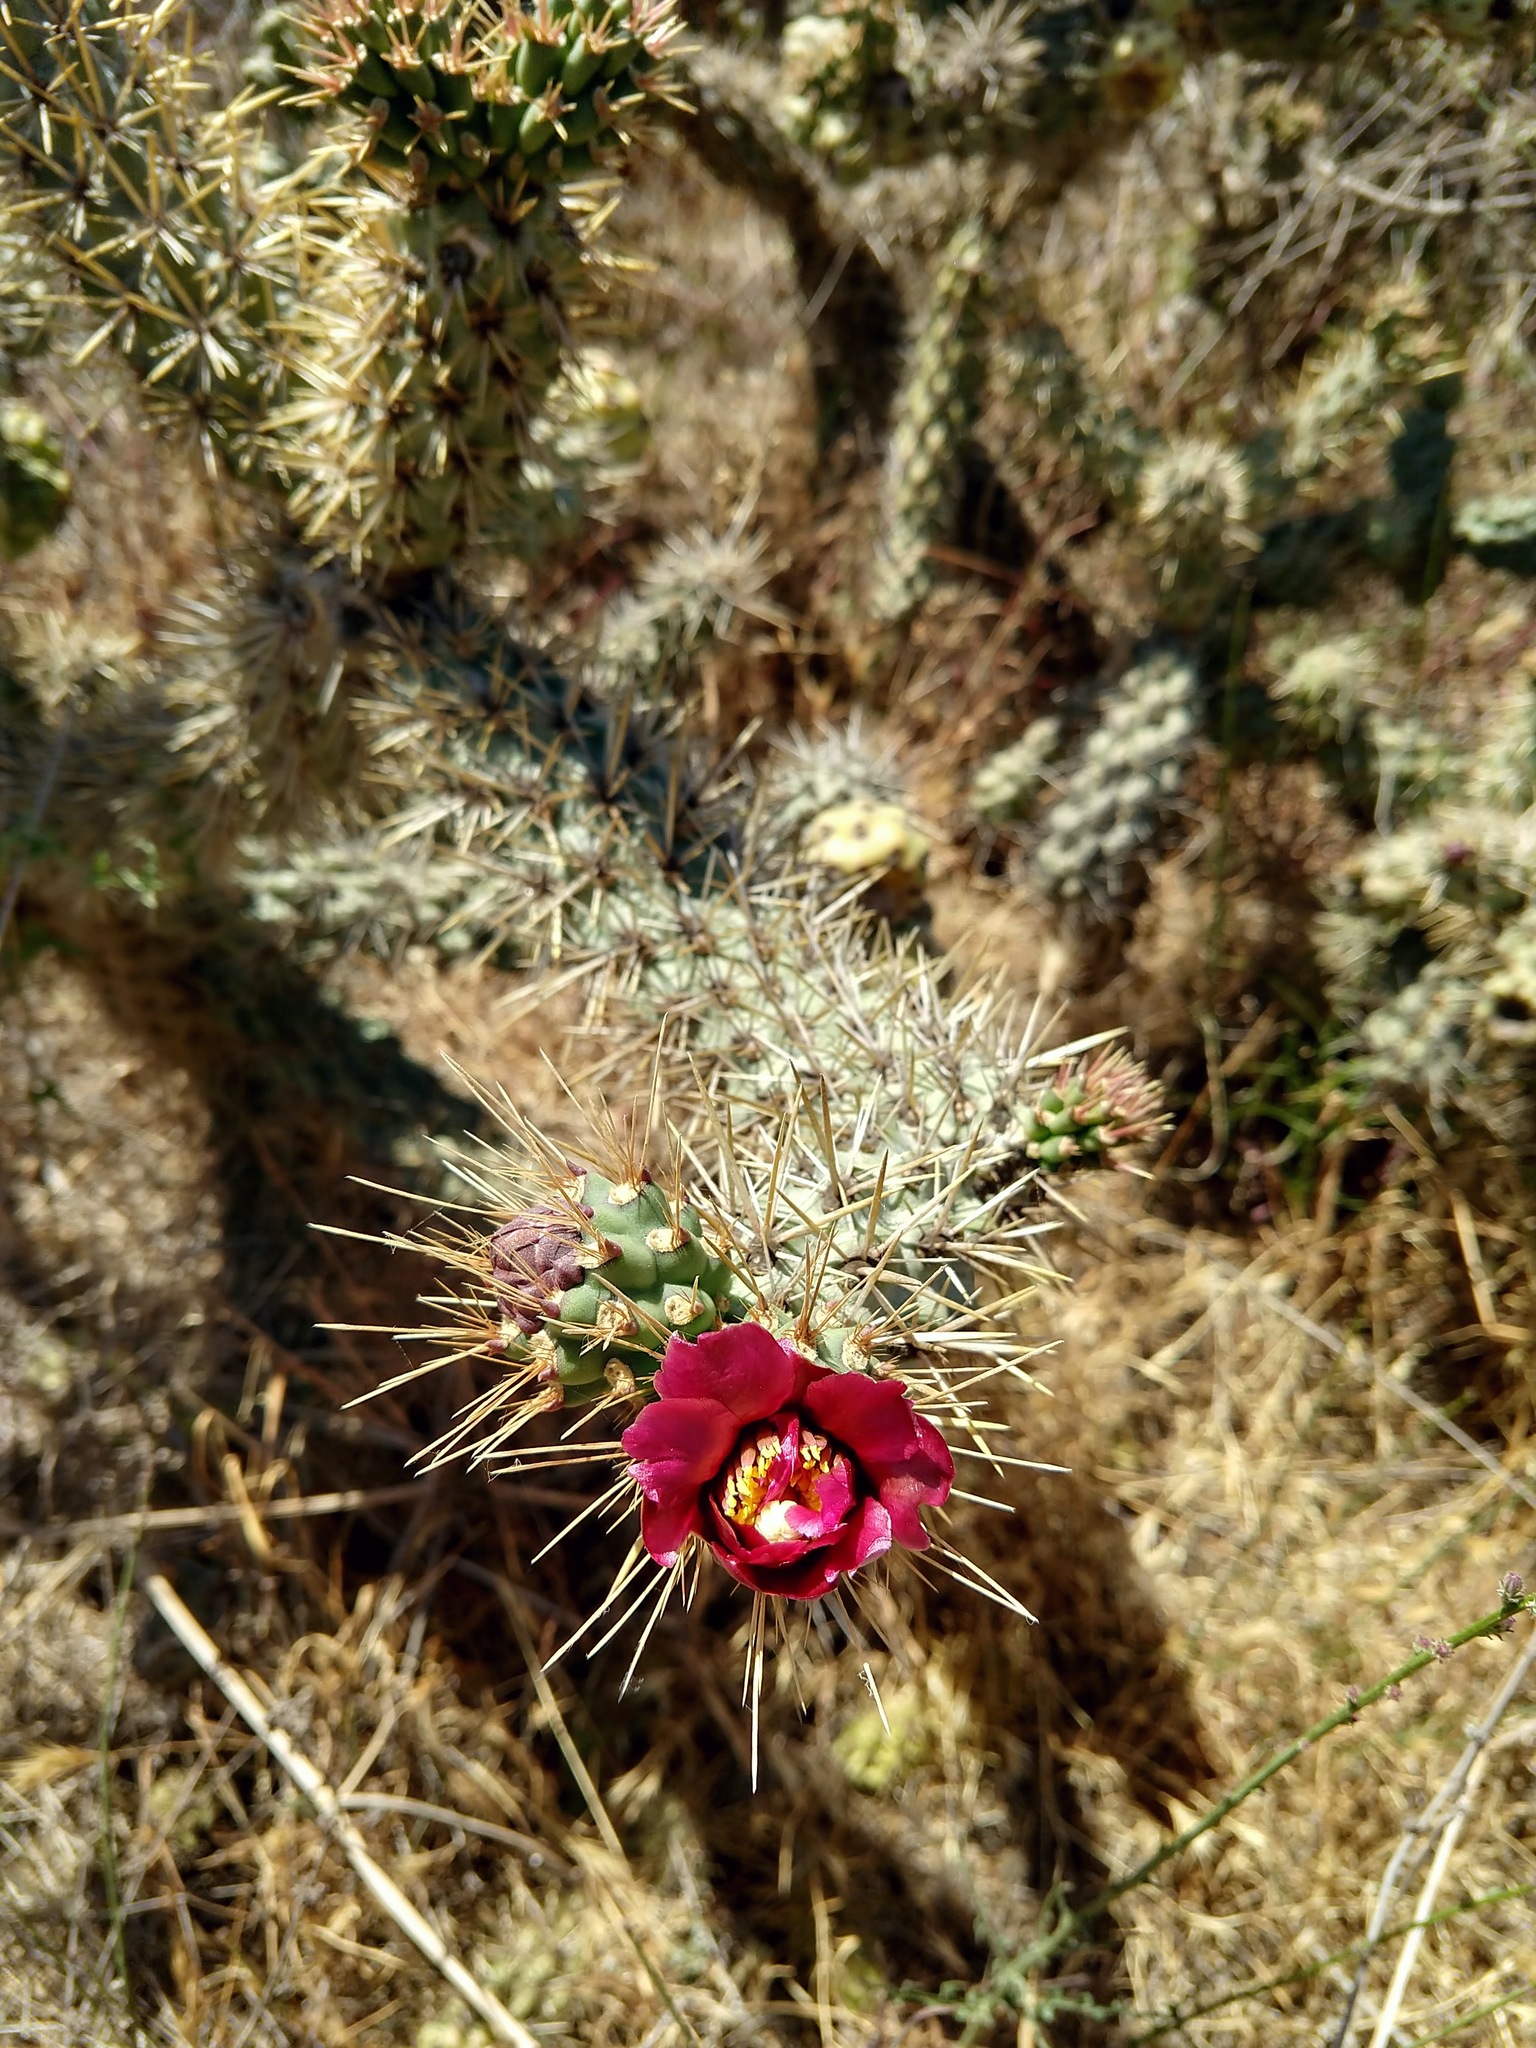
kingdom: Plantae
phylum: Tracheophyta
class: Magnoliopsida
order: Caryophyllales
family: Cactaceae
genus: Cylindropuntia
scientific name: Cylindropuntia prolifera
